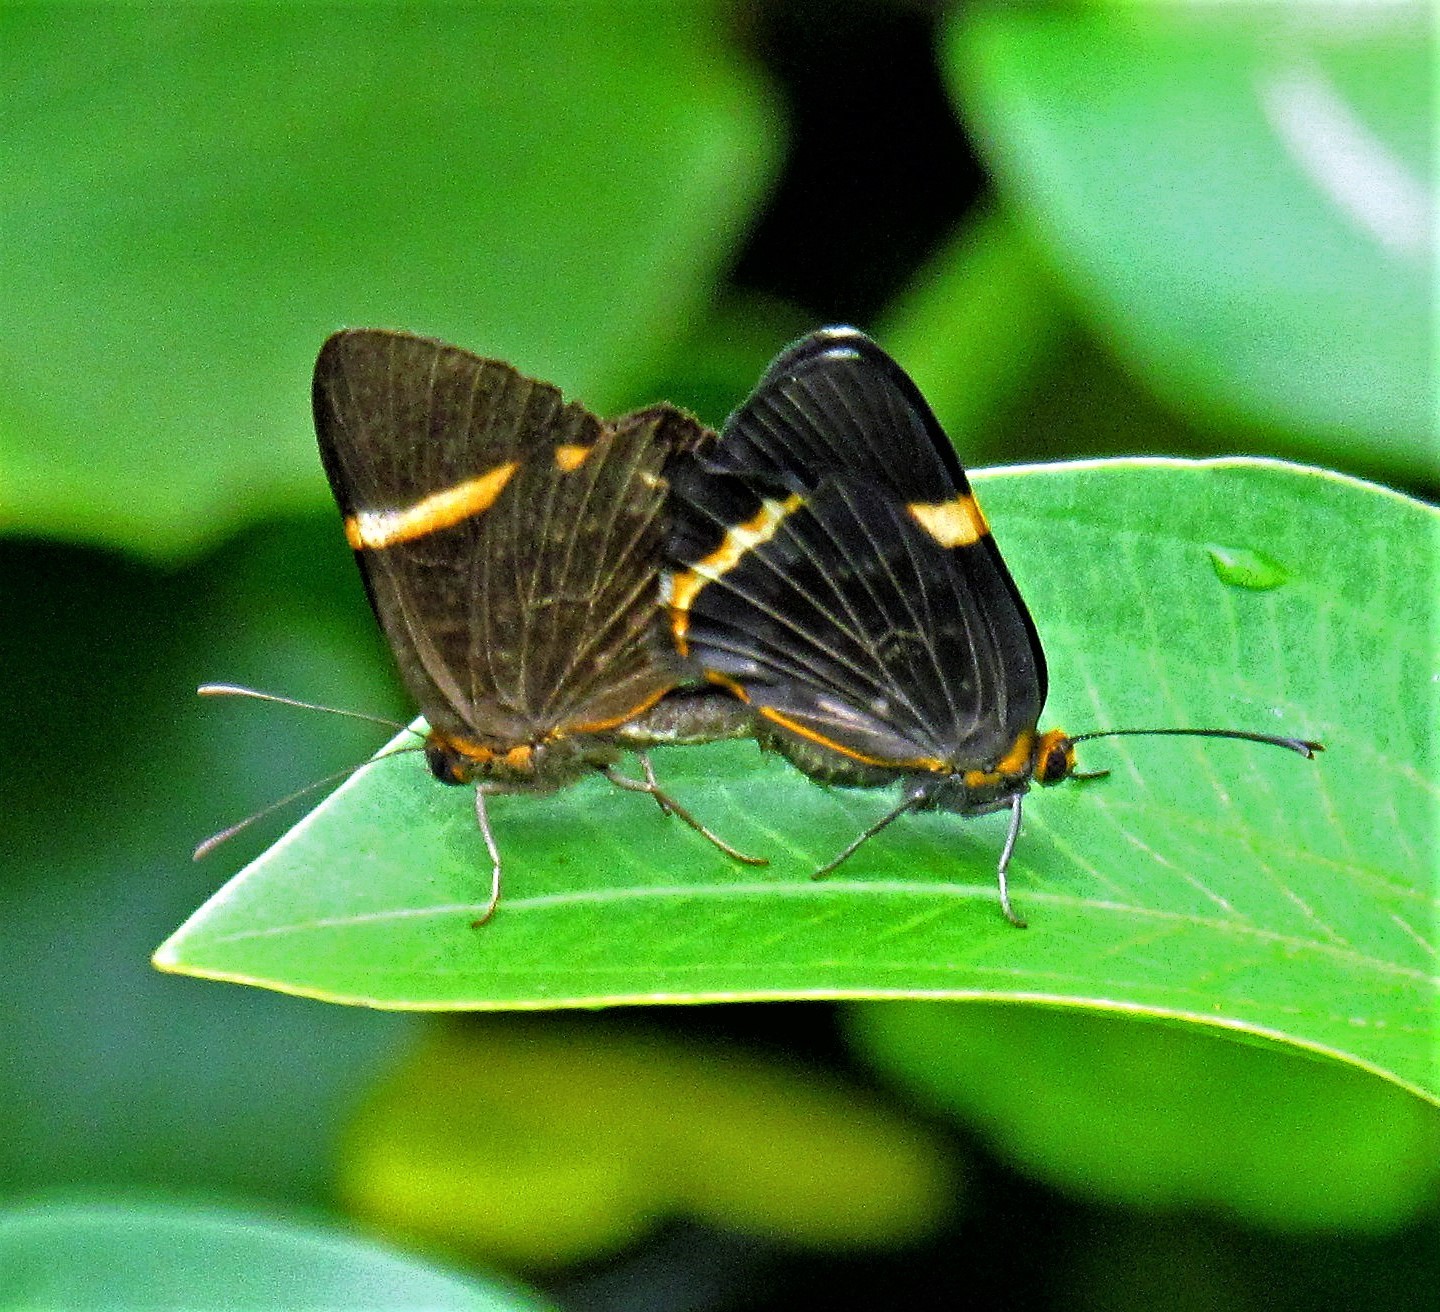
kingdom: Animalia
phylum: Arthropoda
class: Insecta
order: Lepidoptera
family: Riodinidae
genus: Riodina
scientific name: Riodina lysippoides
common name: Little dancer metalmark
